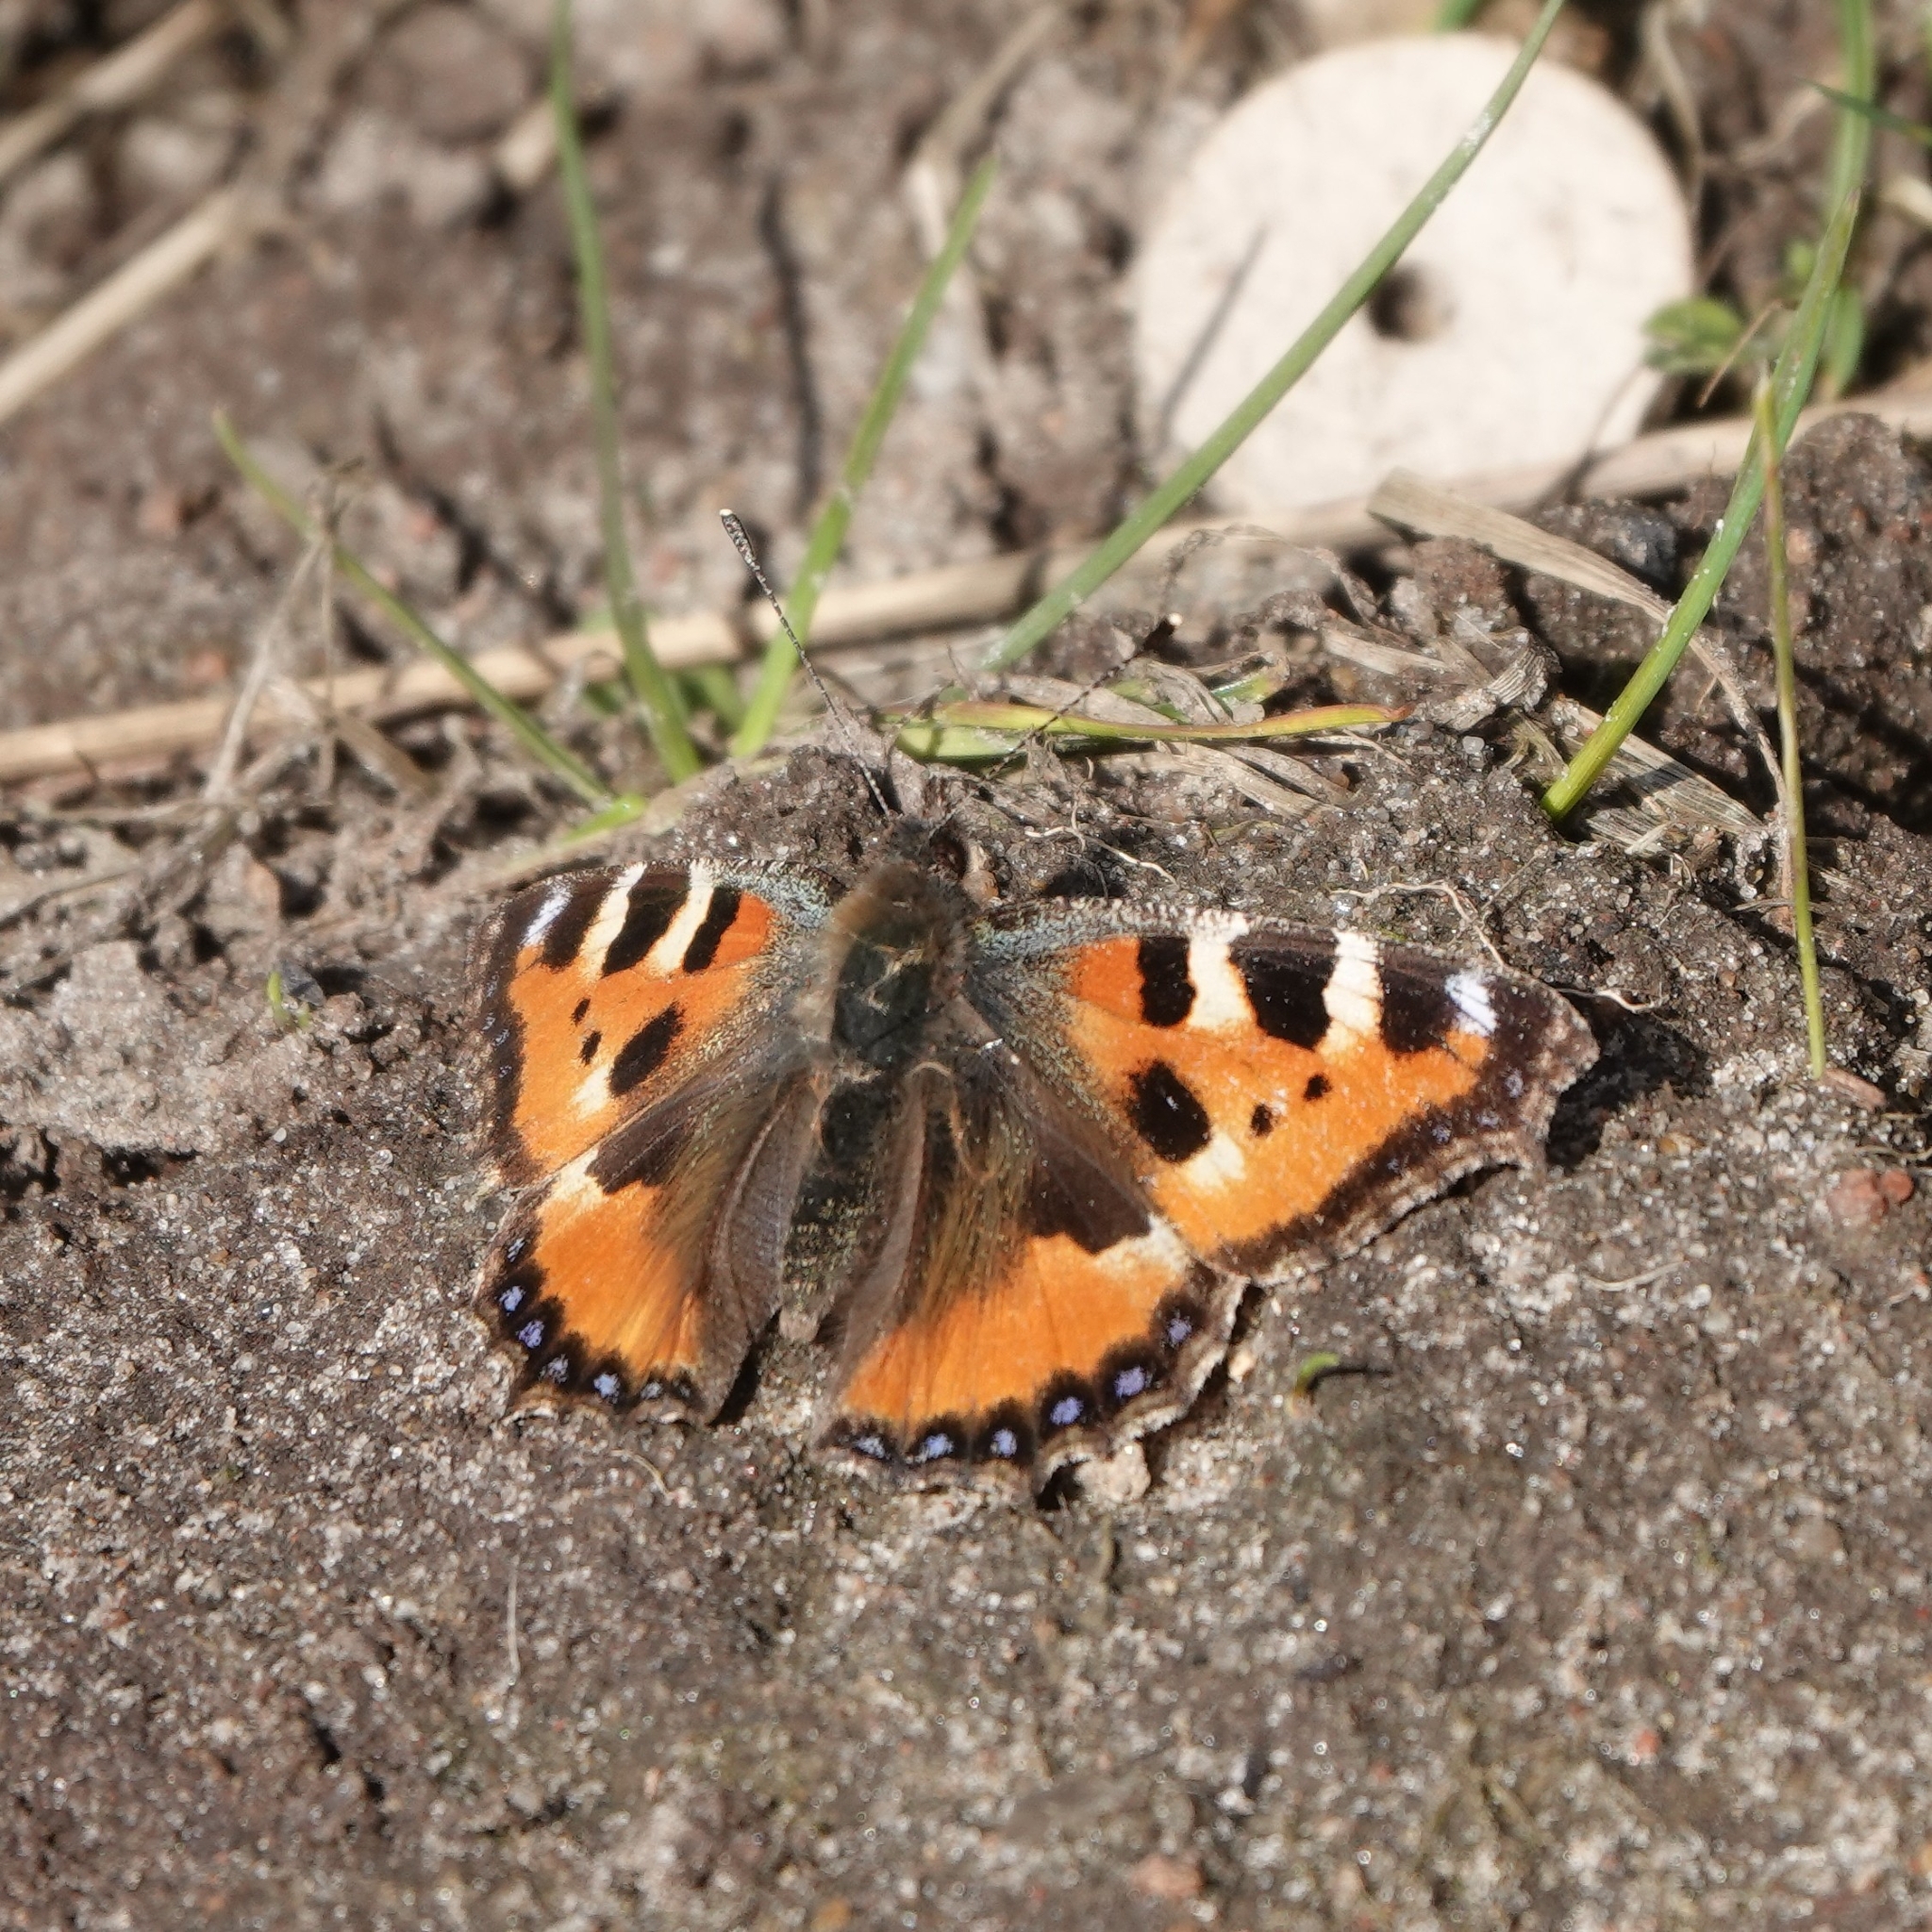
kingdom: Animalia
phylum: Arthropoda
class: Insecta
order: Lepidoptera
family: Nymphalidae
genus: Aglais
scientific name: Aglais urticae
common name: Small tortoiseshell
